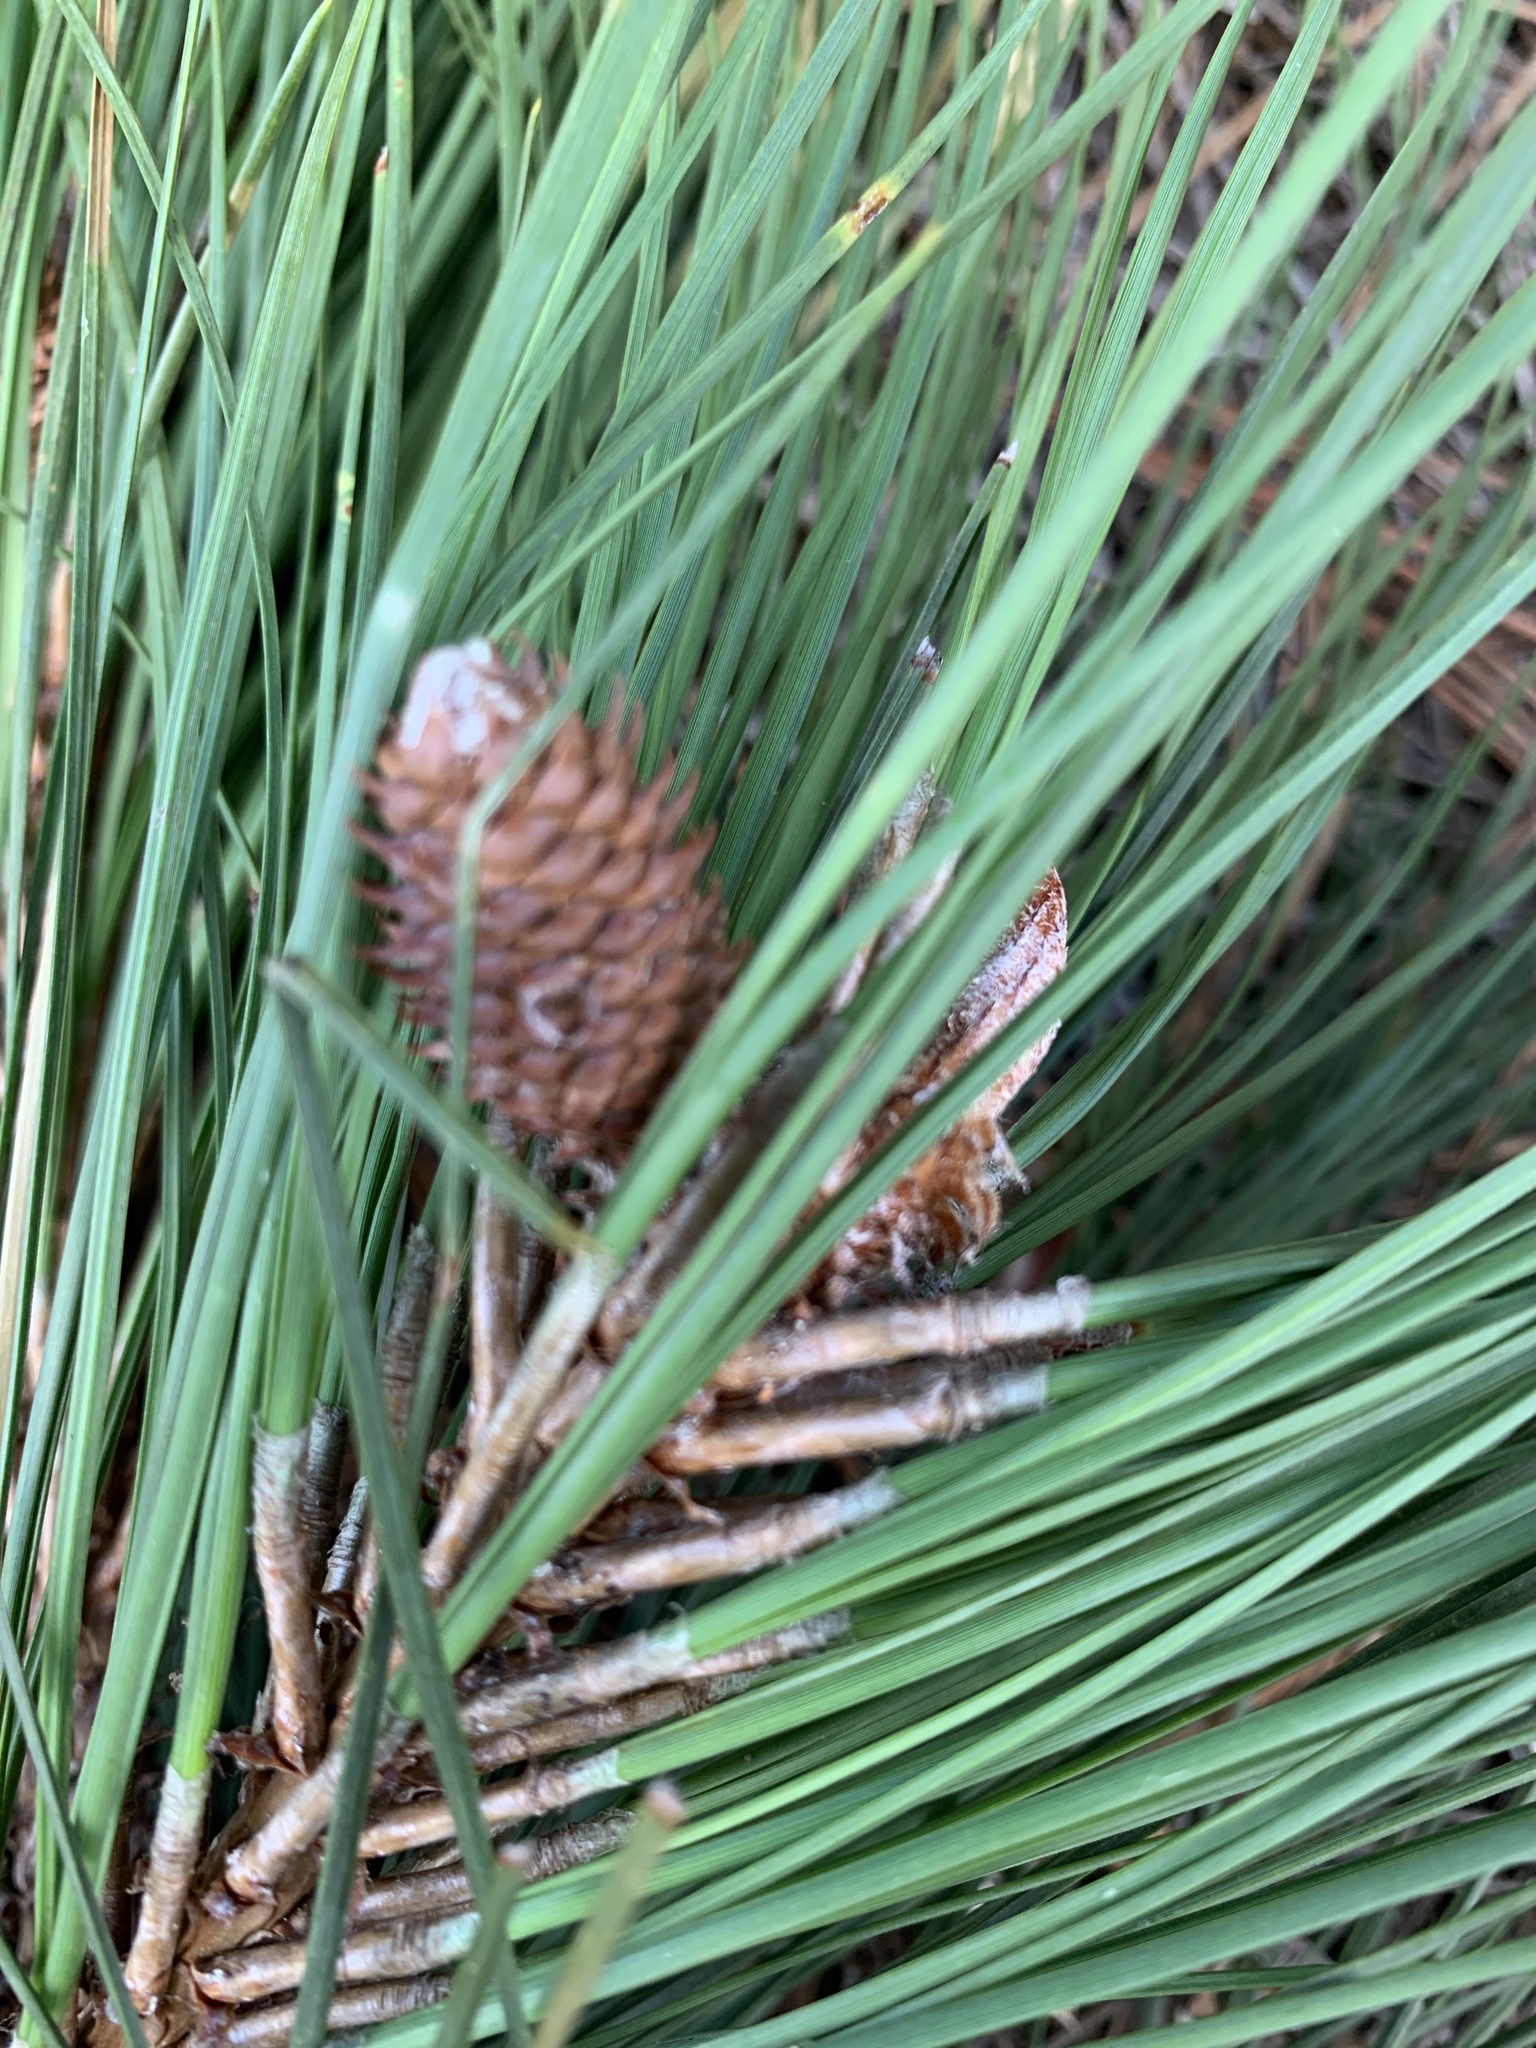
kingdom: Plantae
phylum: Tracheophyta
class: Pinopsida
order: Pinales
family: Pinaceae
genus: Pinus
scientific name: Pinus taeda
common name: Loblolly pine
